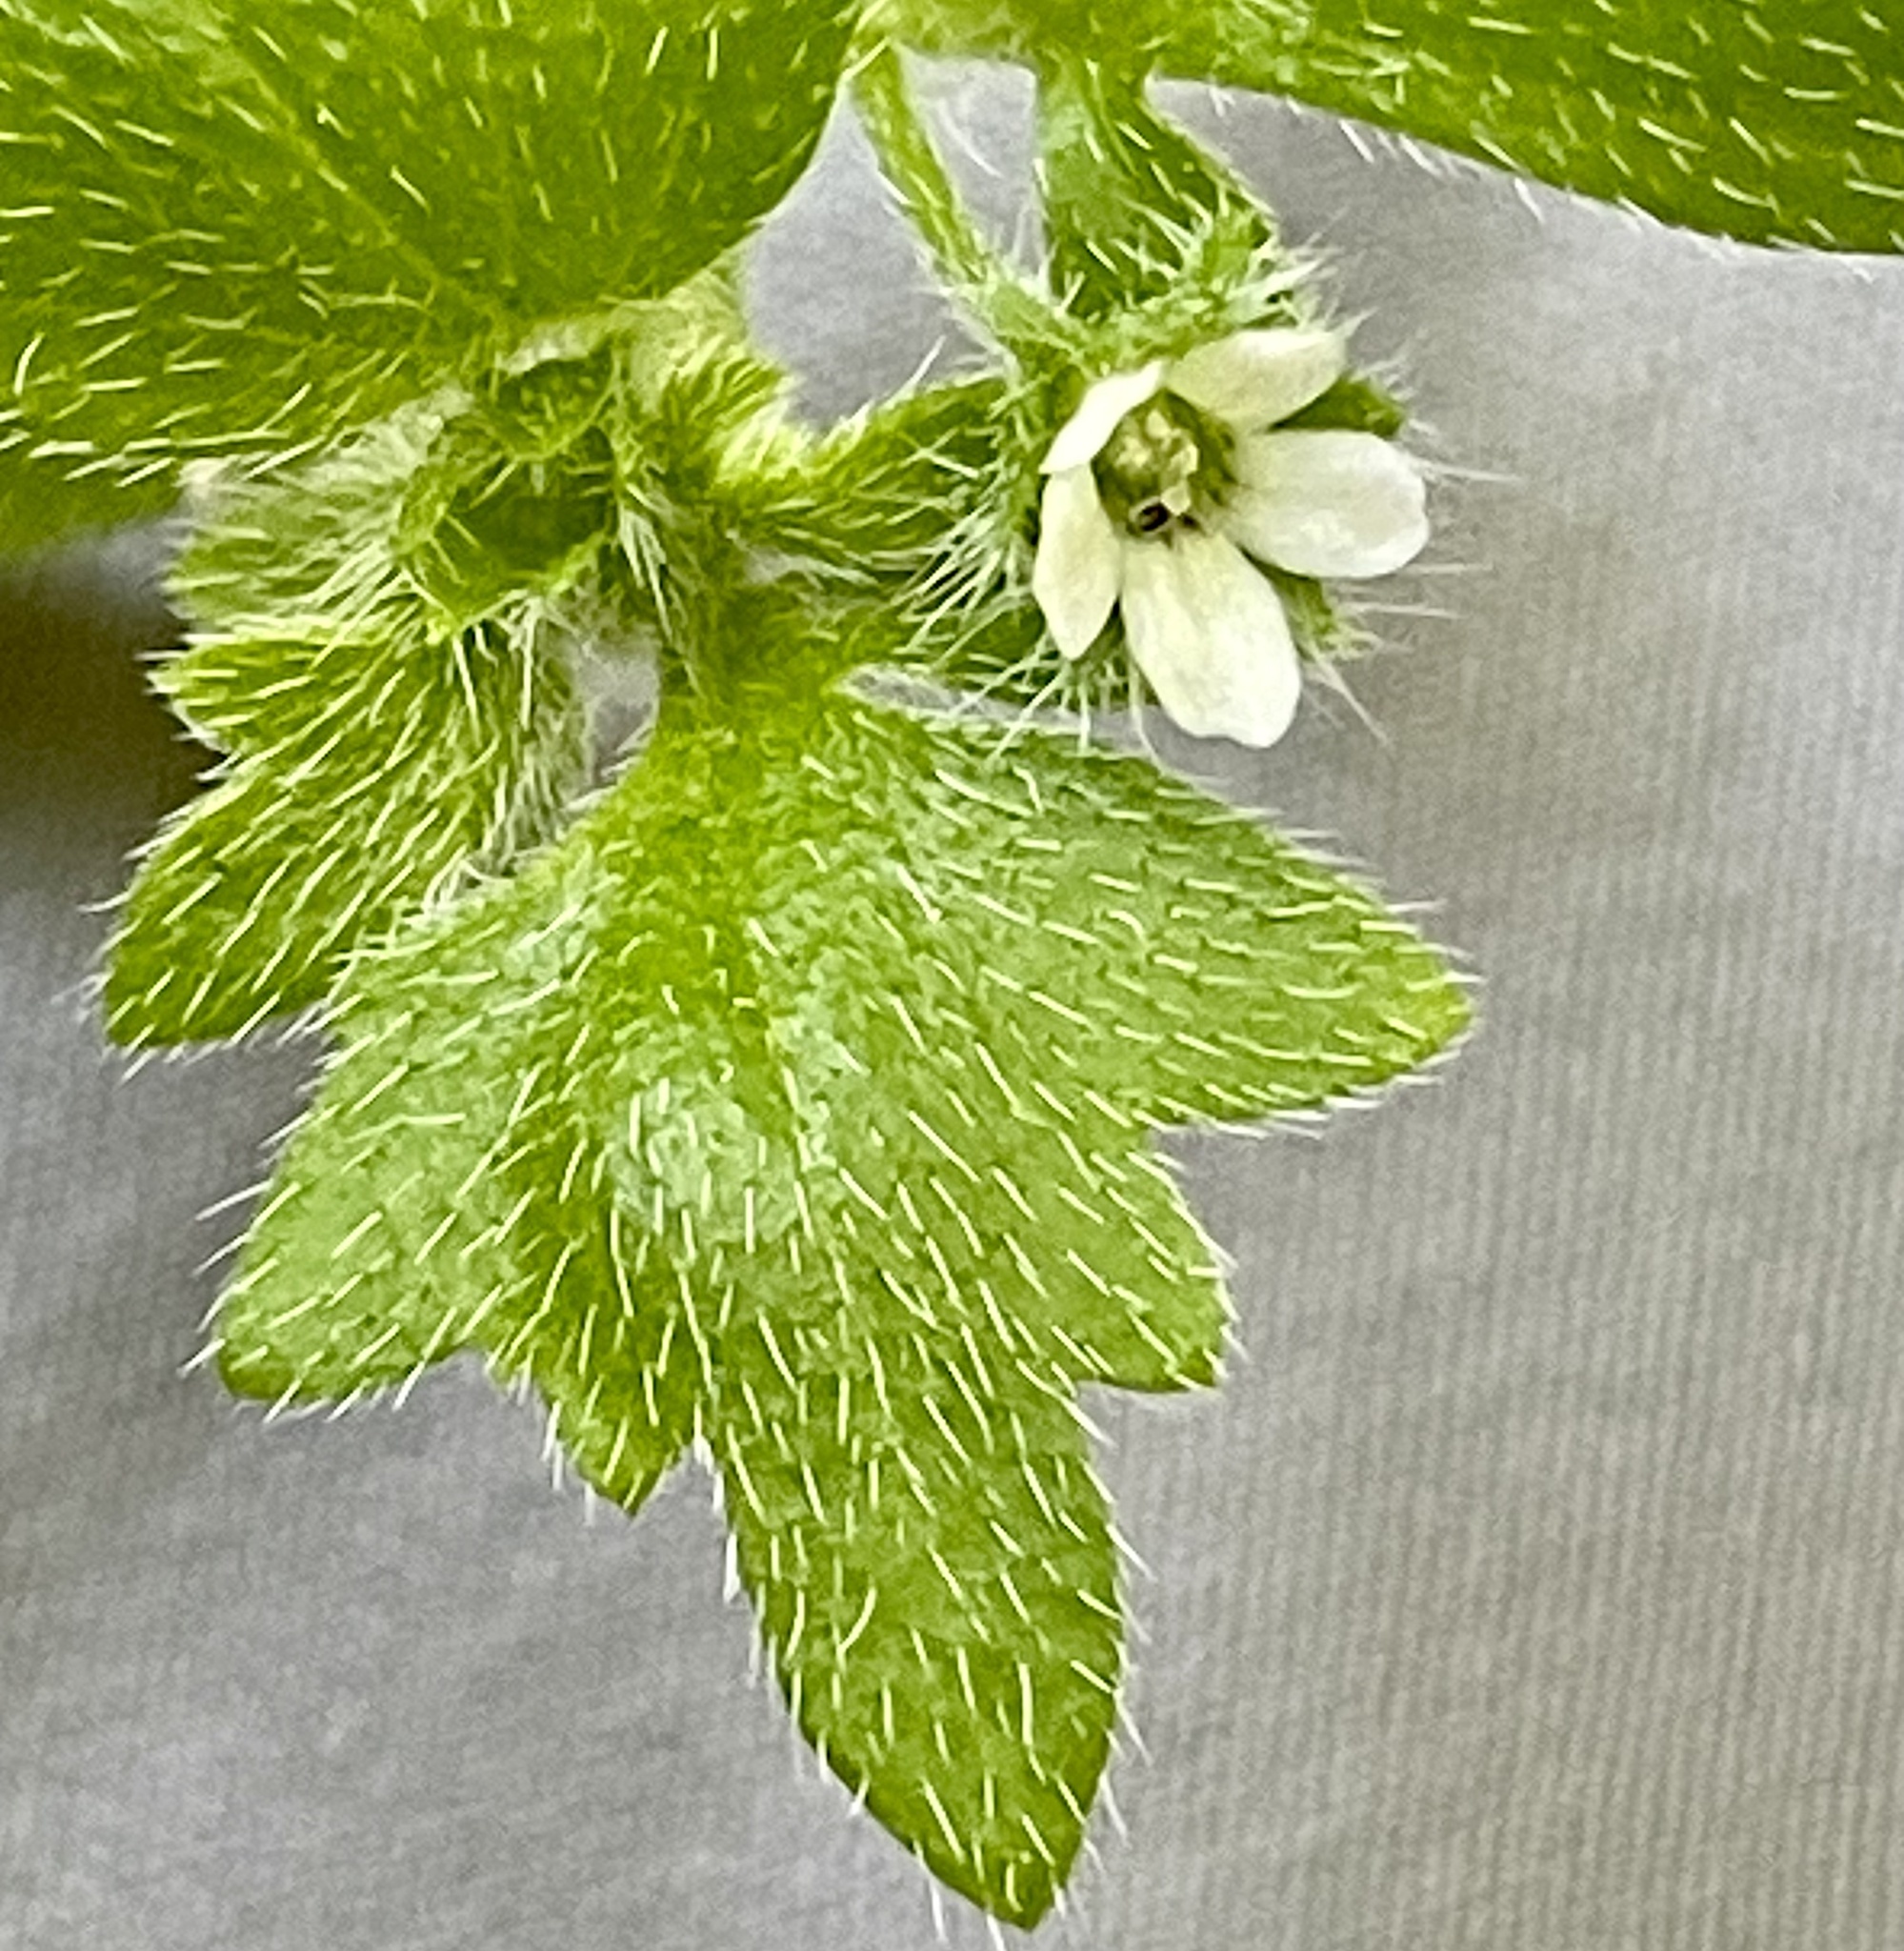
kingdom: Plantae
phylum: Tracheophyta
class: Magnoliopsida
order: Boraginales
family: Hydrophyllaceae
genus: Nemophila
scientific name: Nemophila parviflora
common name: Small-flowered baby-blue-eyes
